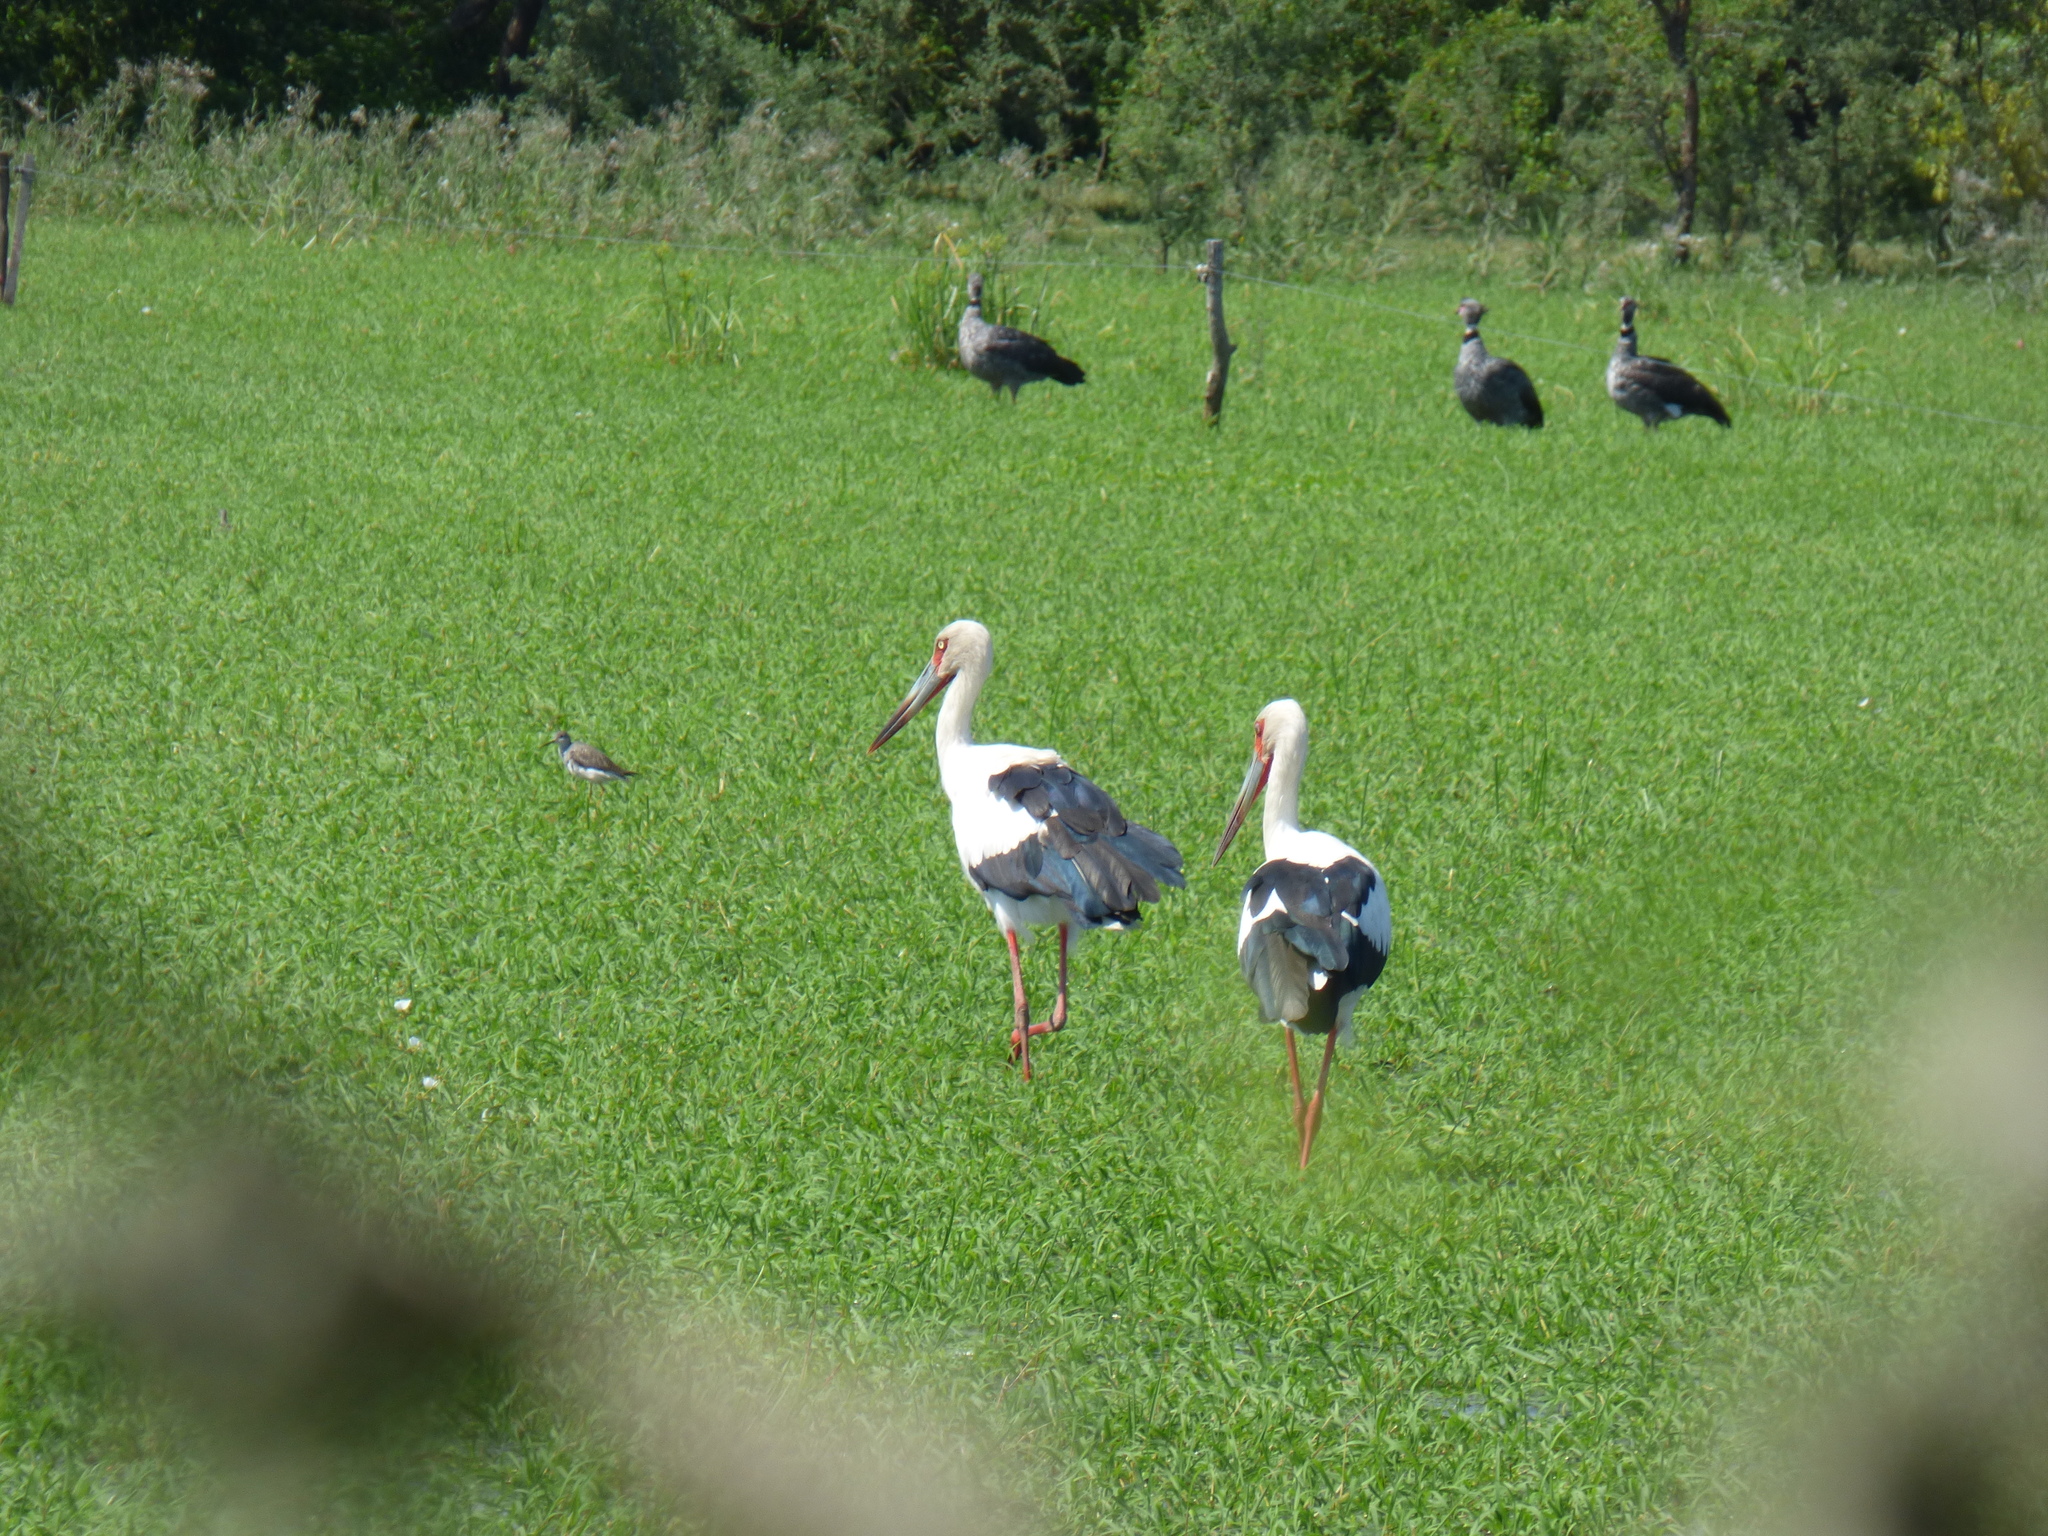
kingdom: Animalia
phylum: Chordata
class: Aves
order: Ciconiiformes
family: Ciconiidae
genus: Ciconia
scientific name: Ciconia maguari
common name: Maguari stork
